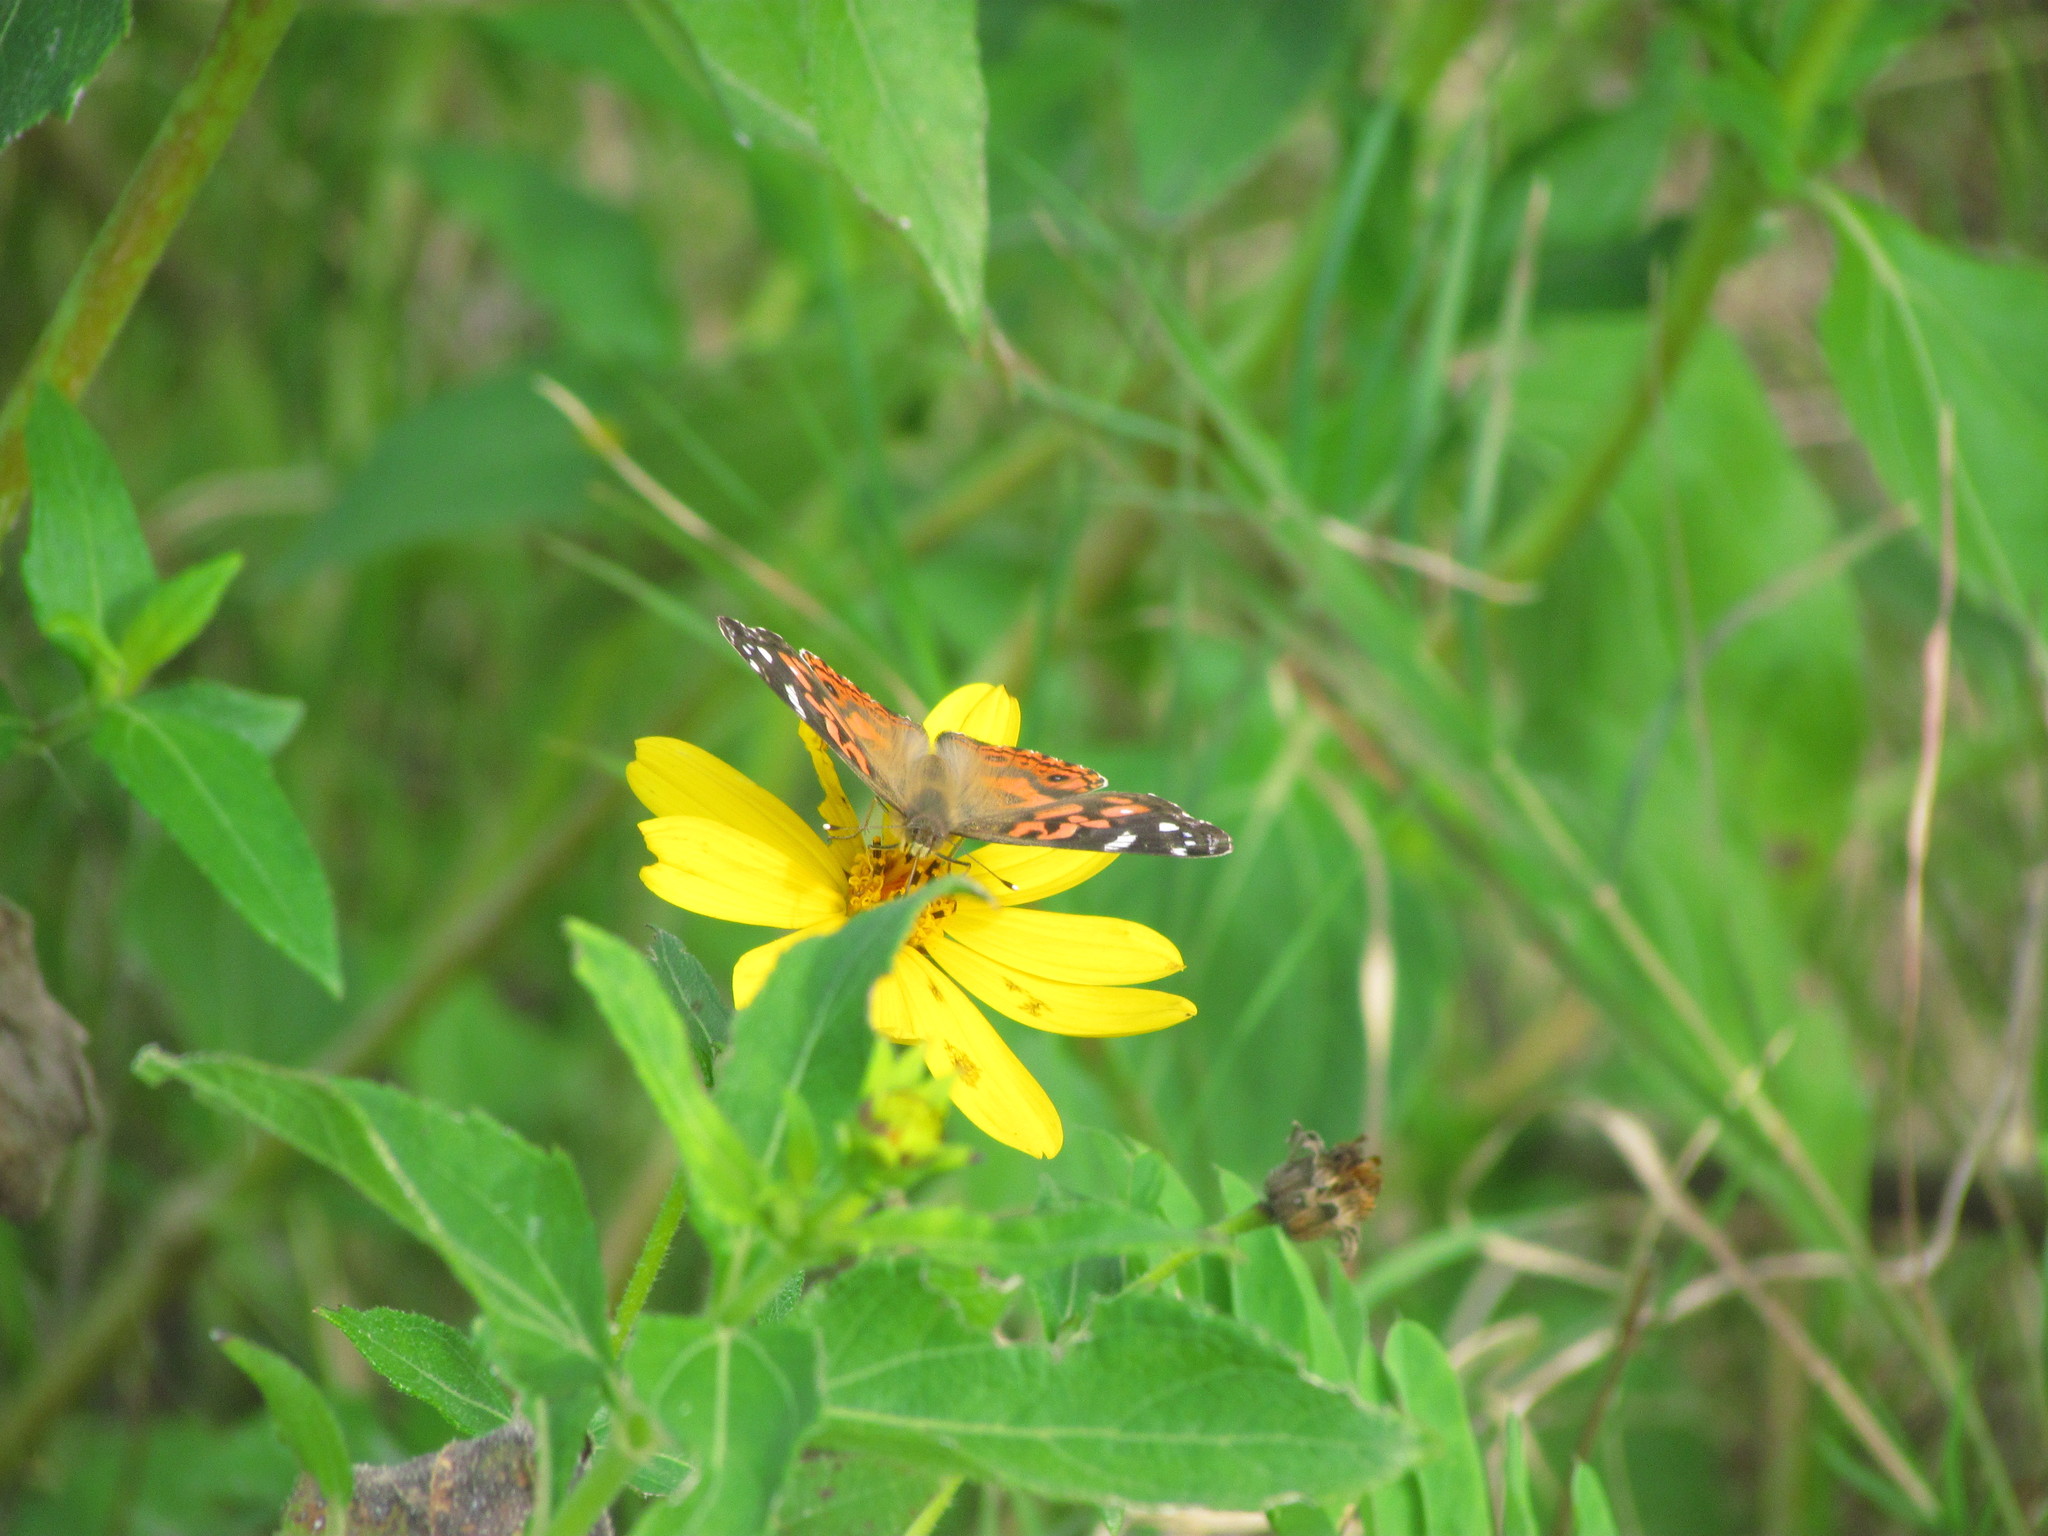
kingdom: Animalia
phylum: Arthropoda
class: Insecta
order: Lepidoptera
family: Nymphalidae
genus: Vanessa
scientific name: Vanessa braziliensis
